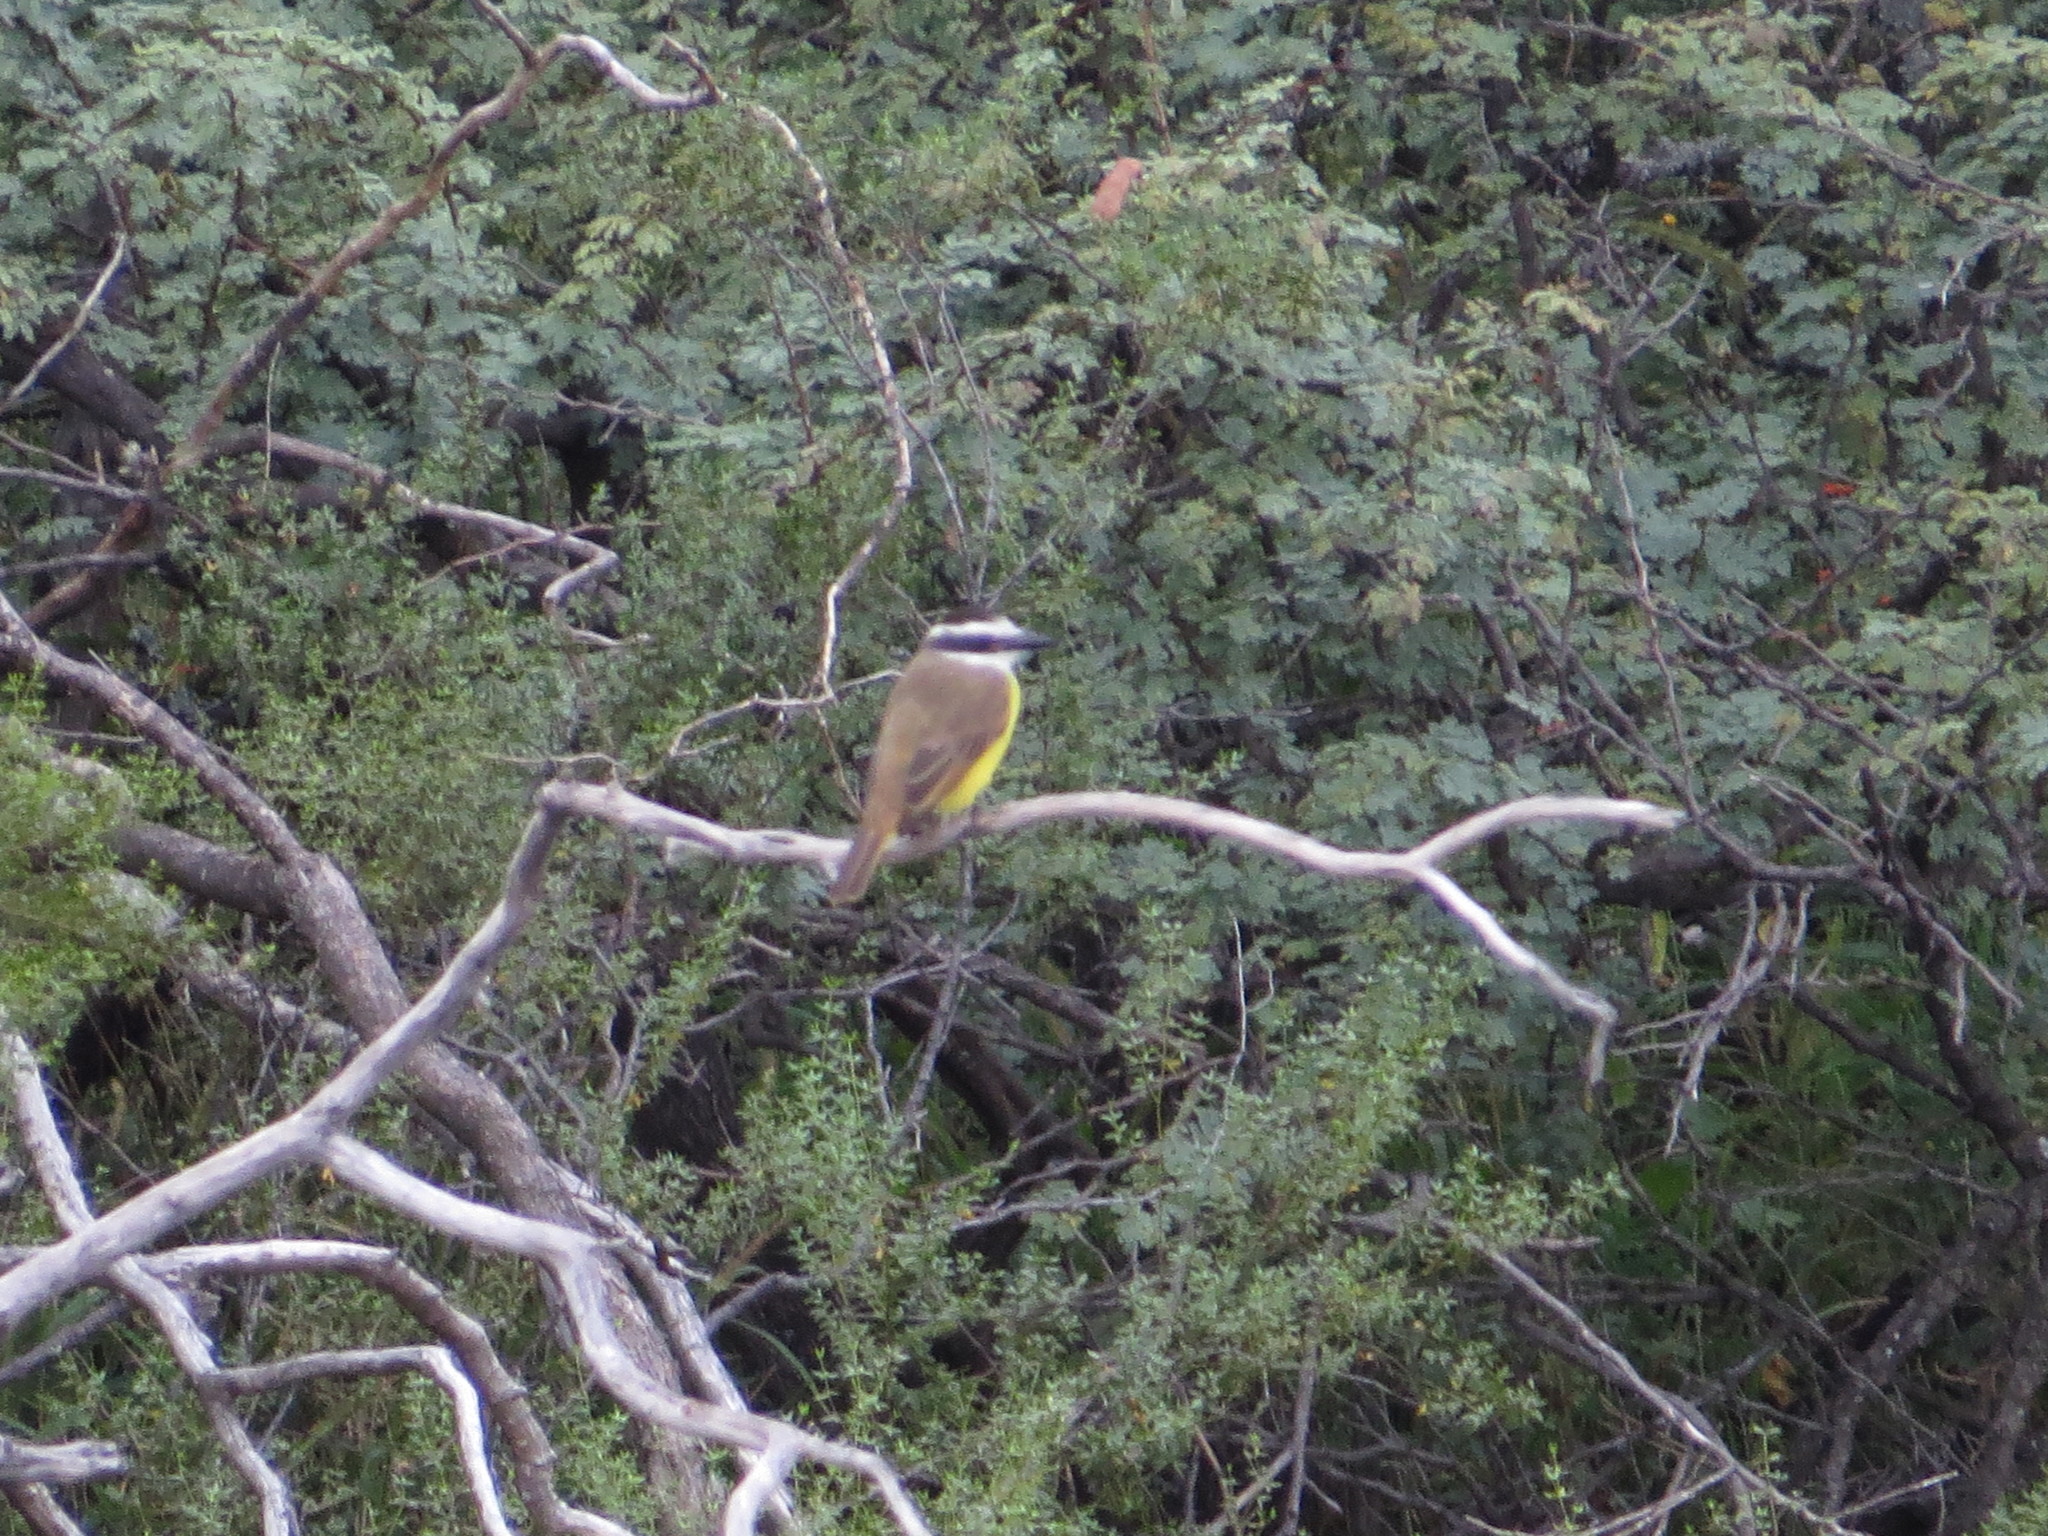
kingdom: Animalia
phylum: Chordata
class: Aves
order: Passeriformes
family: Tyrannidae
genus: Pitangus
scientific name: Pitangus sulphuratus
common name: Great kiskadee
